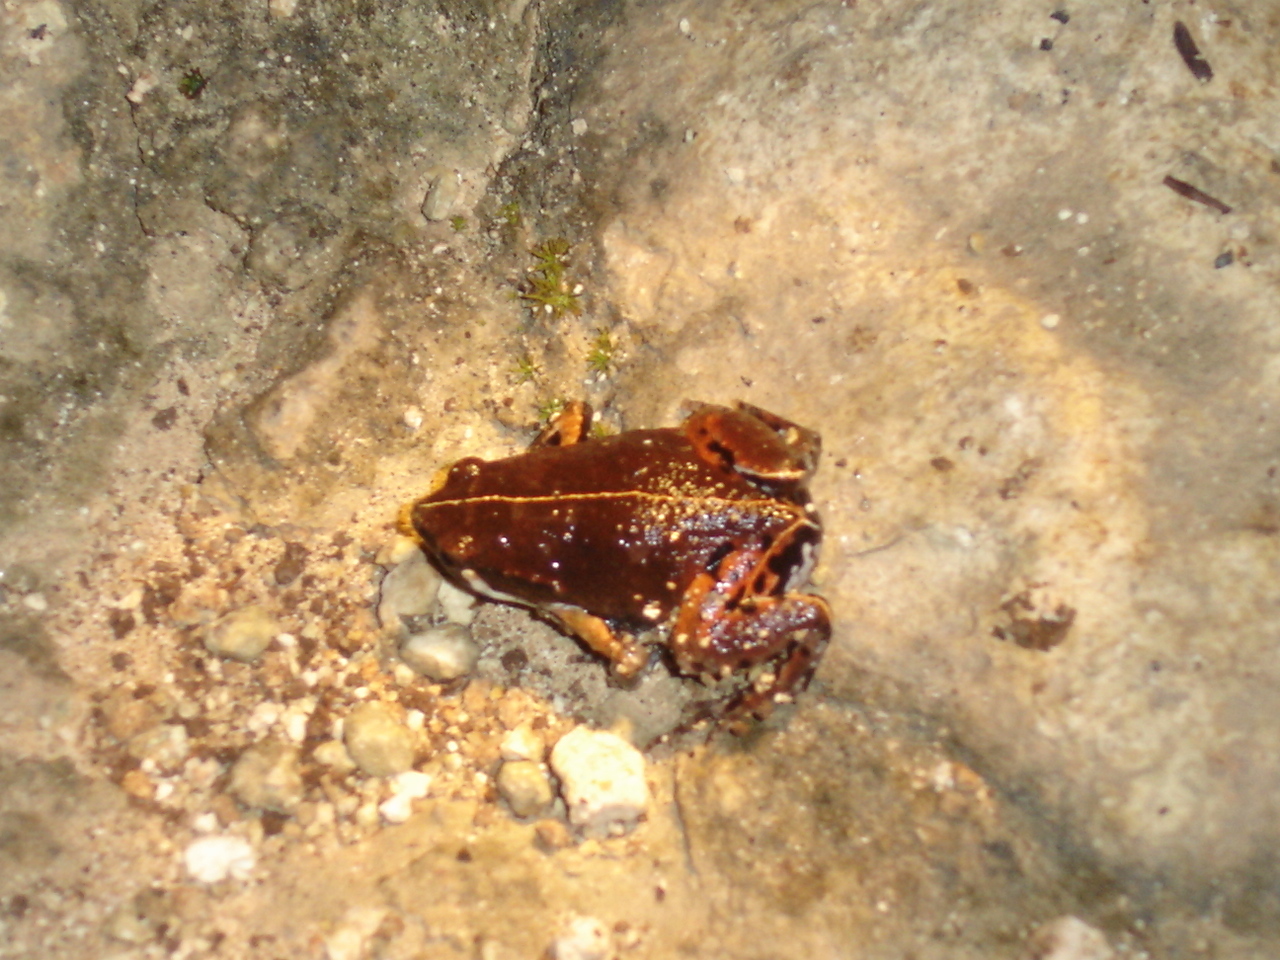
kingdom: Animalia
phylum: Chordata
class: Amphibia
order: Anura
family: Microhylidae
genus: Hypopachus
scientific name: Hypopachus variolosus
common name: Sheep frog
